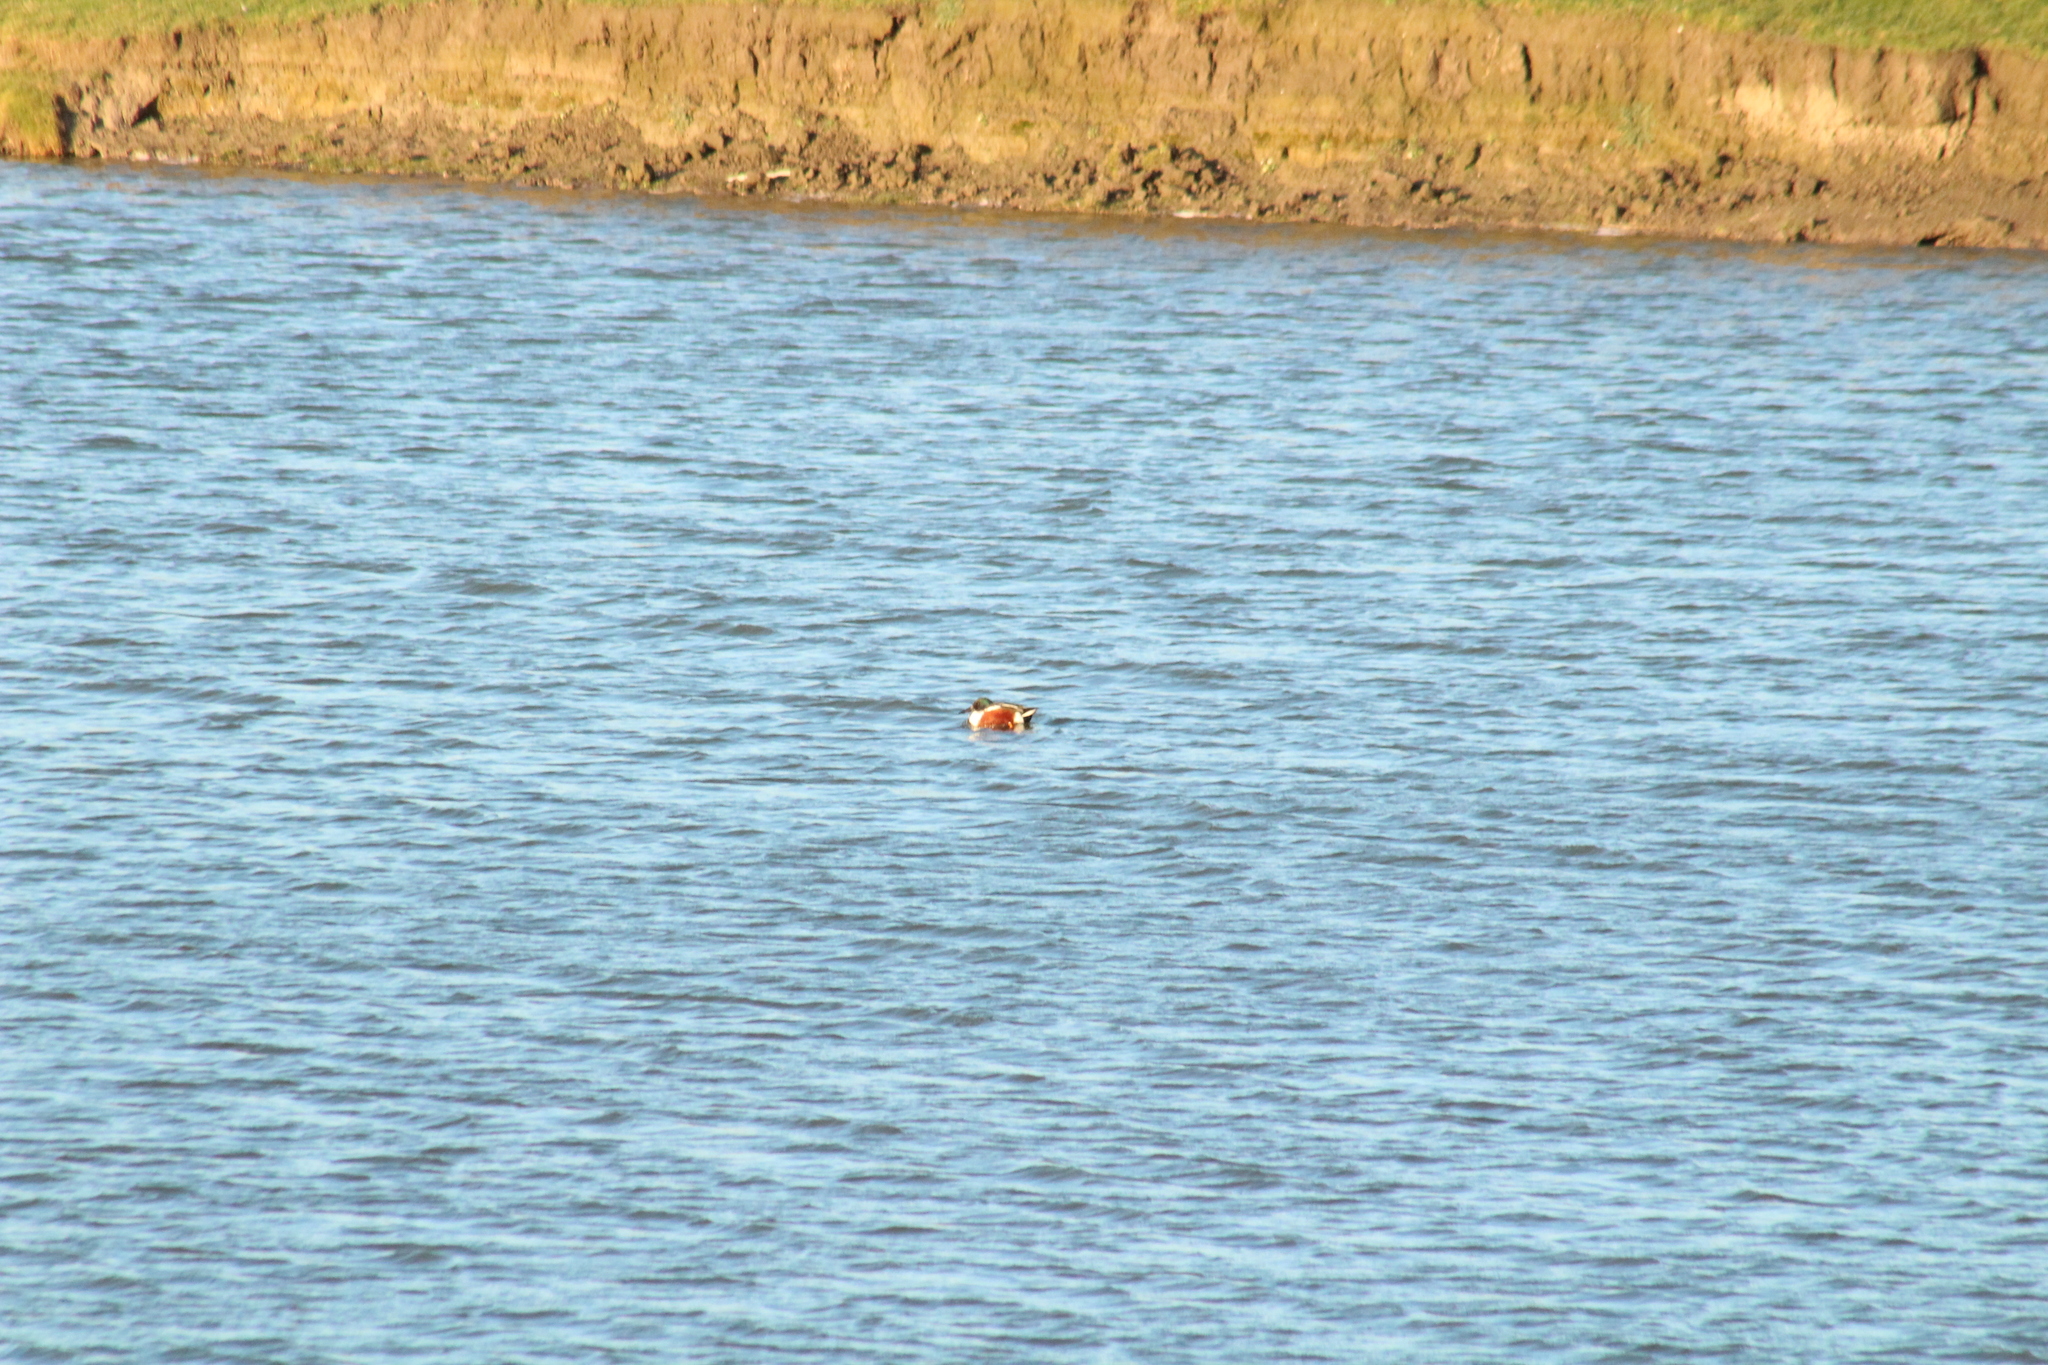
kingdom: Animalia
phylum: Chordata
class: Aves
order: Anseriformes
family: Anatidae
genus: Spatula
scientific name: Spatula clypeata
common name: Northern shoveler
